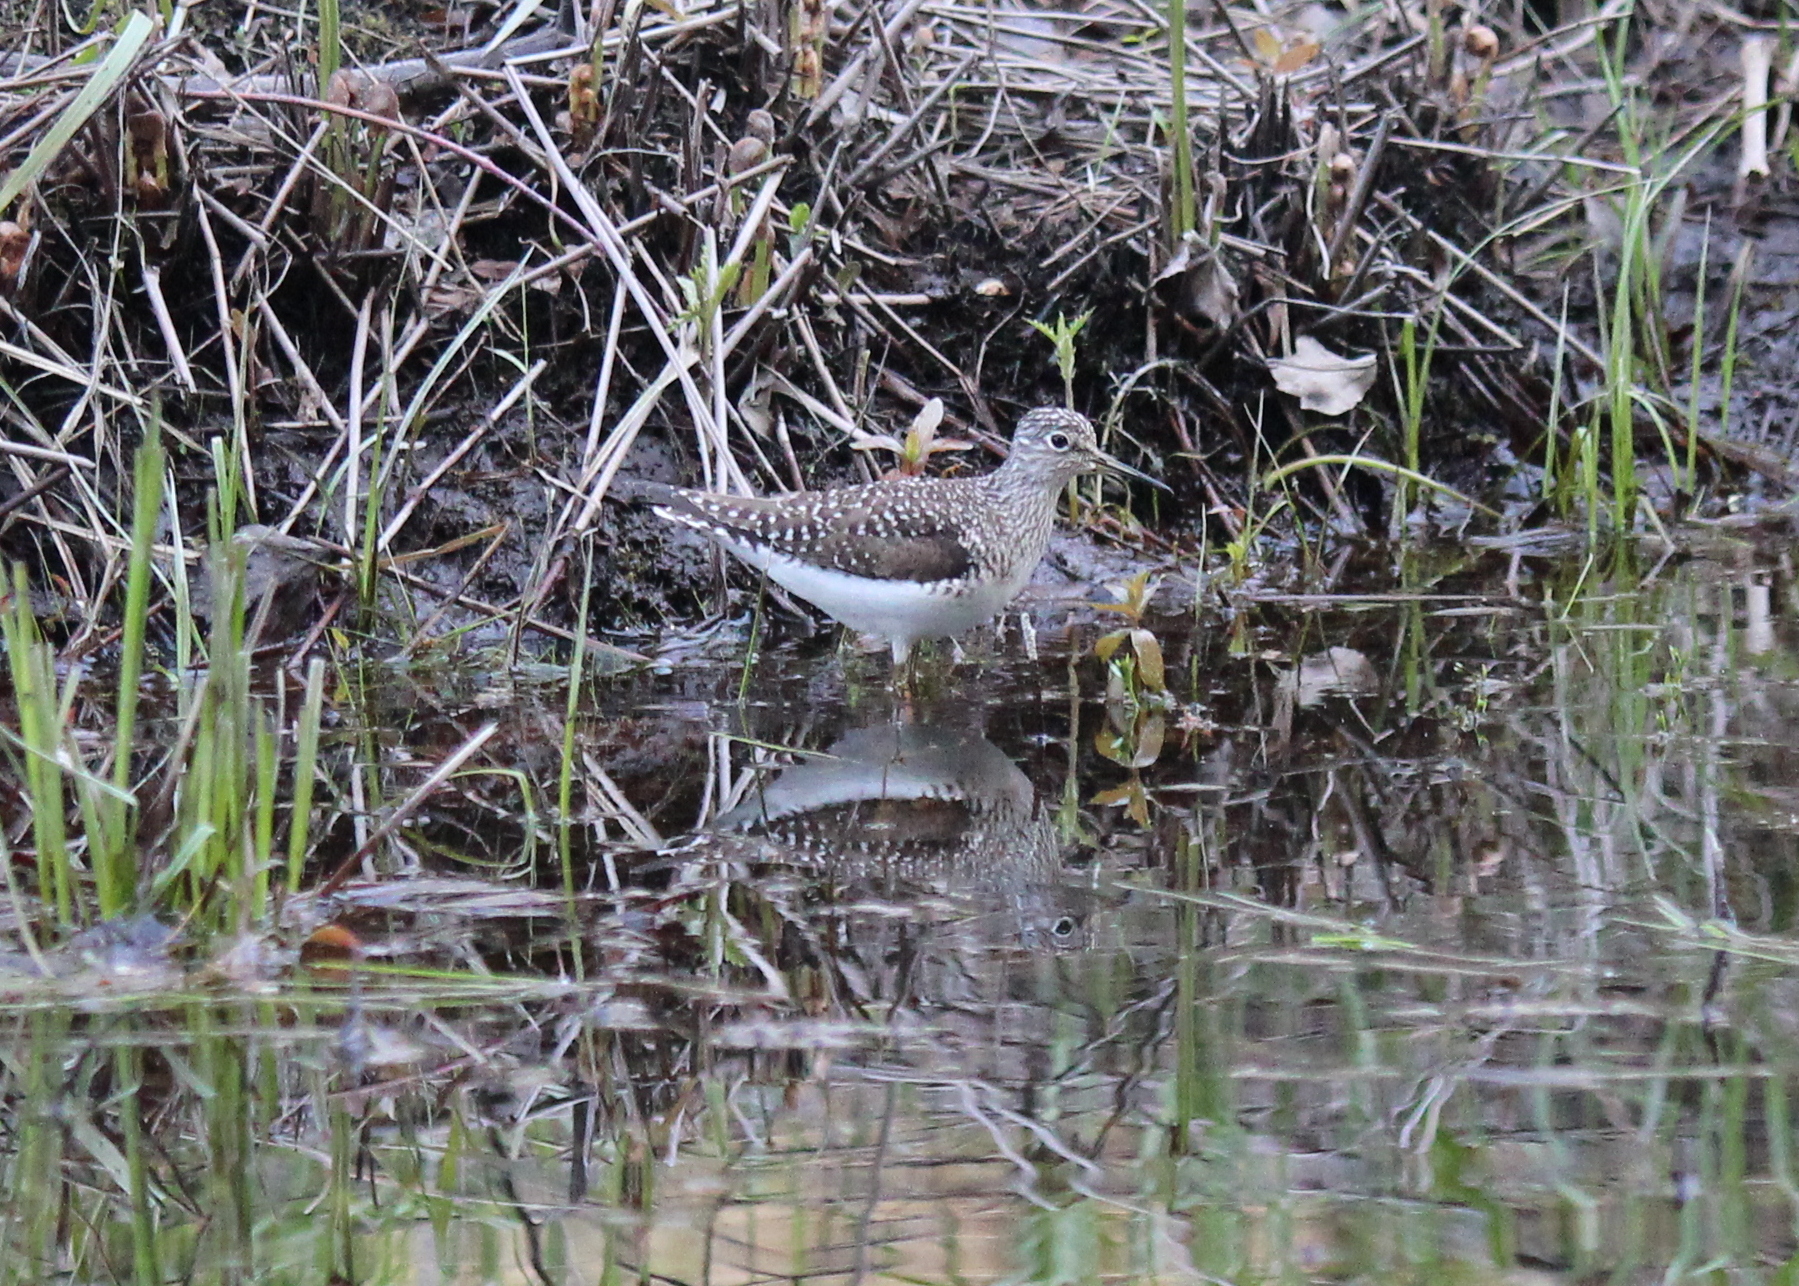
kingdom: Animalia
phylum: Chordata
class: Aves
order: Charadriiformes
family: Scolopacidae
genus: Tringa
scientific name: Tringa solitaria
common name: Solitary sandpiper
